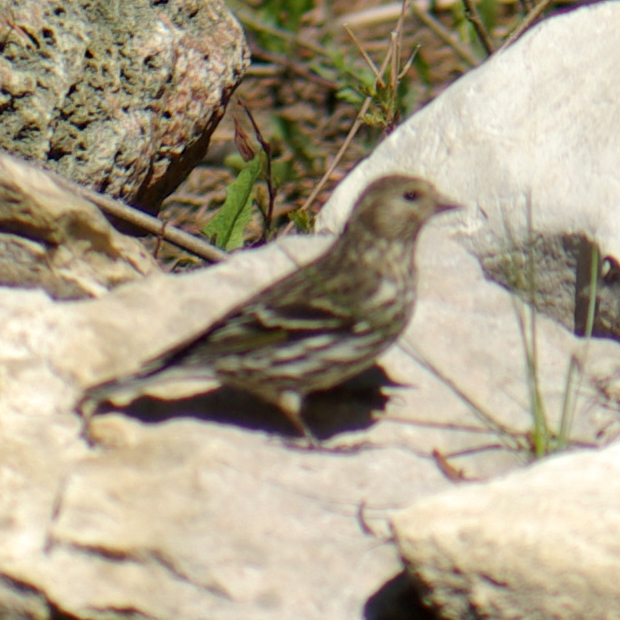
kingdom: Animalia
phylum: Chordata
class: Aves
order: Passeriformes
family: Fringillidae
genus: Spinus
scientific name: Spinus pinus
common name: Pine siskin
